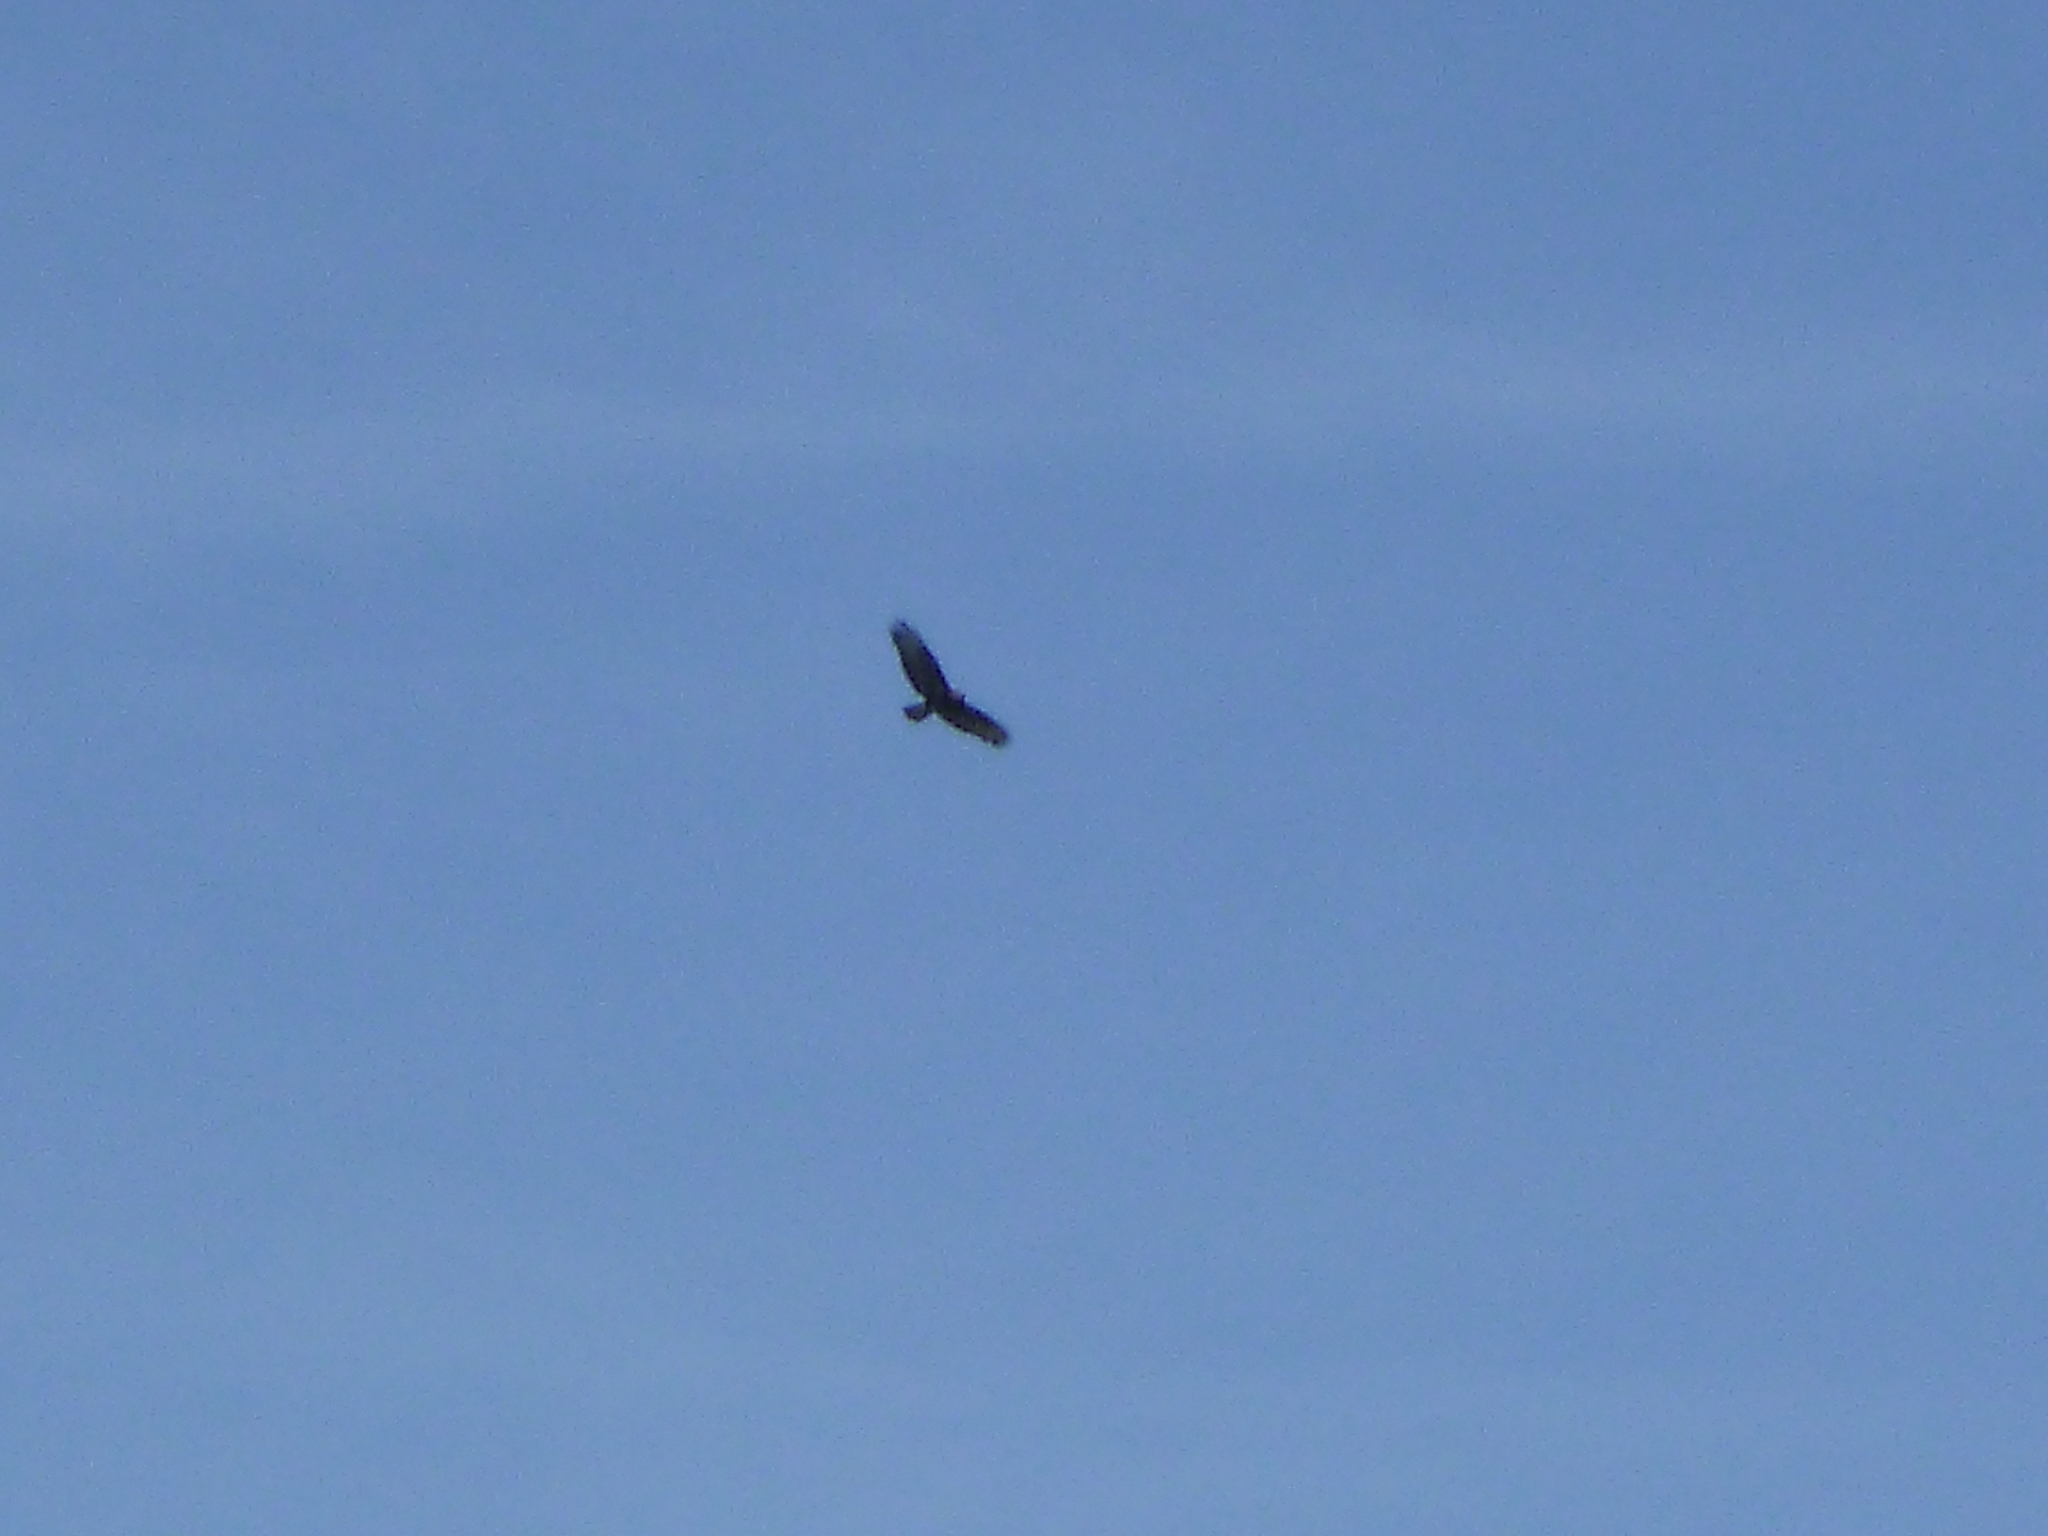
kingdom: Animalia
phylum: Chordata
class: Aves
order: Accipitriformes
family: Accipitridae
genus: Buteo
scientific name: Buteo buteo
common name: Common buzzard
